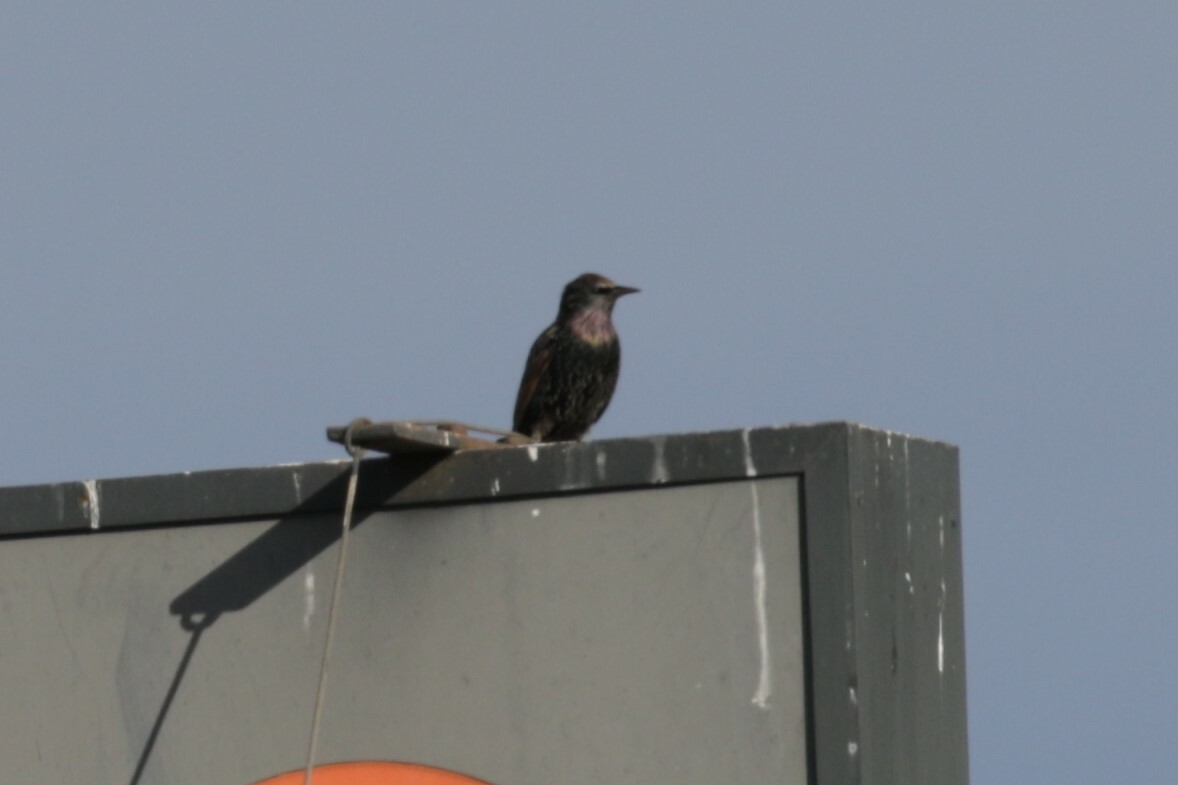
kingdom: Animalia
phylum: Chordata
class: Aves
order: Passeriformes
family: Sturnidae
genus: Sturnus
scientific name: Sturnus vulgaris
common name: Common starling
